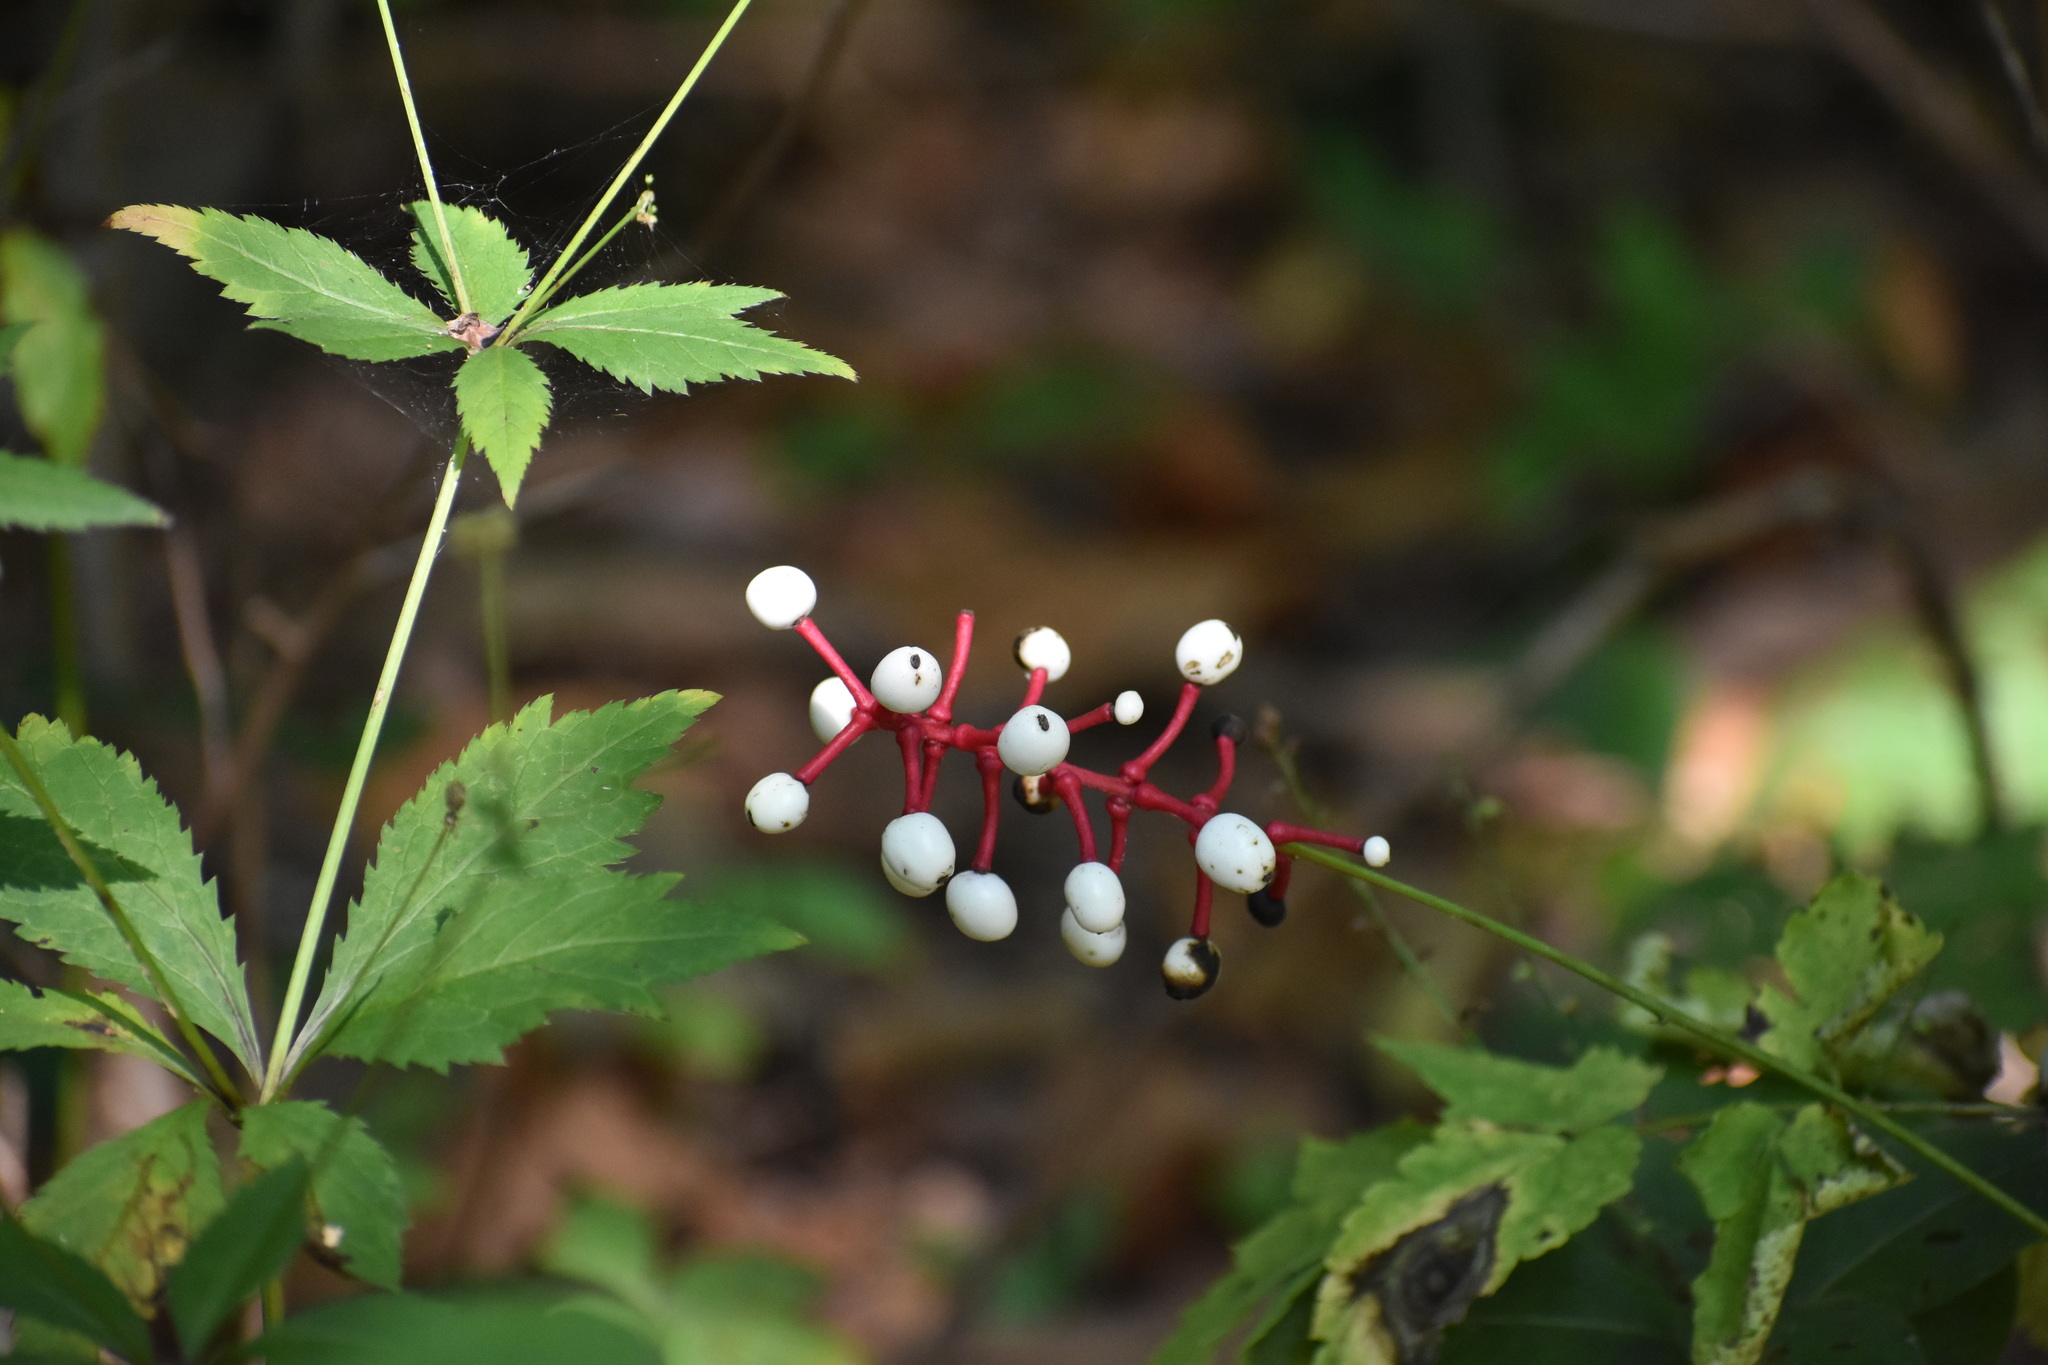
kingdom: Plantae
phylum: Tracheophyta
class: Magnoliopsida
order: Ranunculales
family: Ranunculaceae
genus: Actaea
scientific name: Actaea pachypoda
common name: Doll's-eyes
